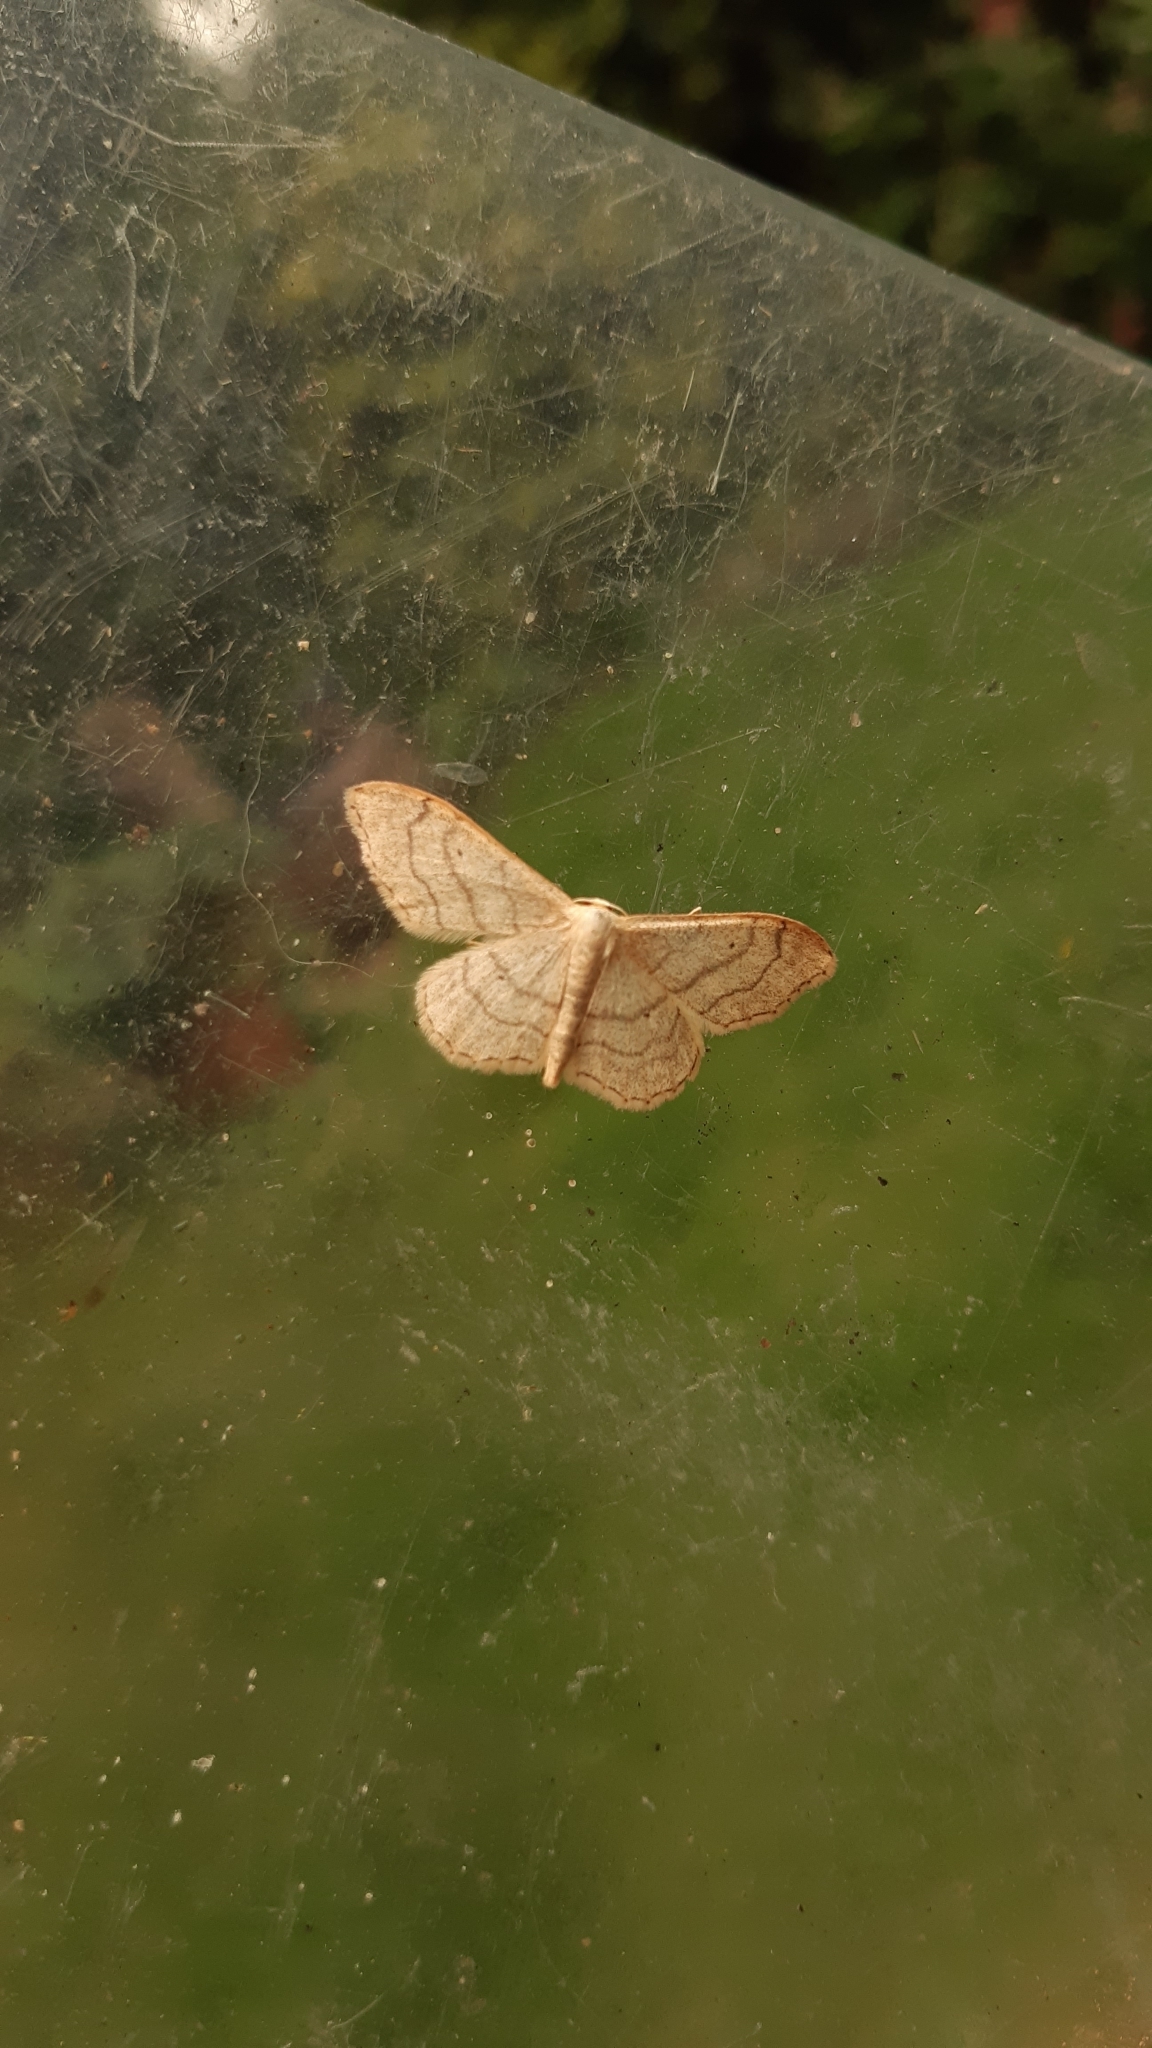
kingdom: Animalia
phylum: Arthropoda
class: Insecta
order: Lepidoptera
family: Geometridae
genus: Idaea
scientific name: Idaea aversata
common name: Riband wave
